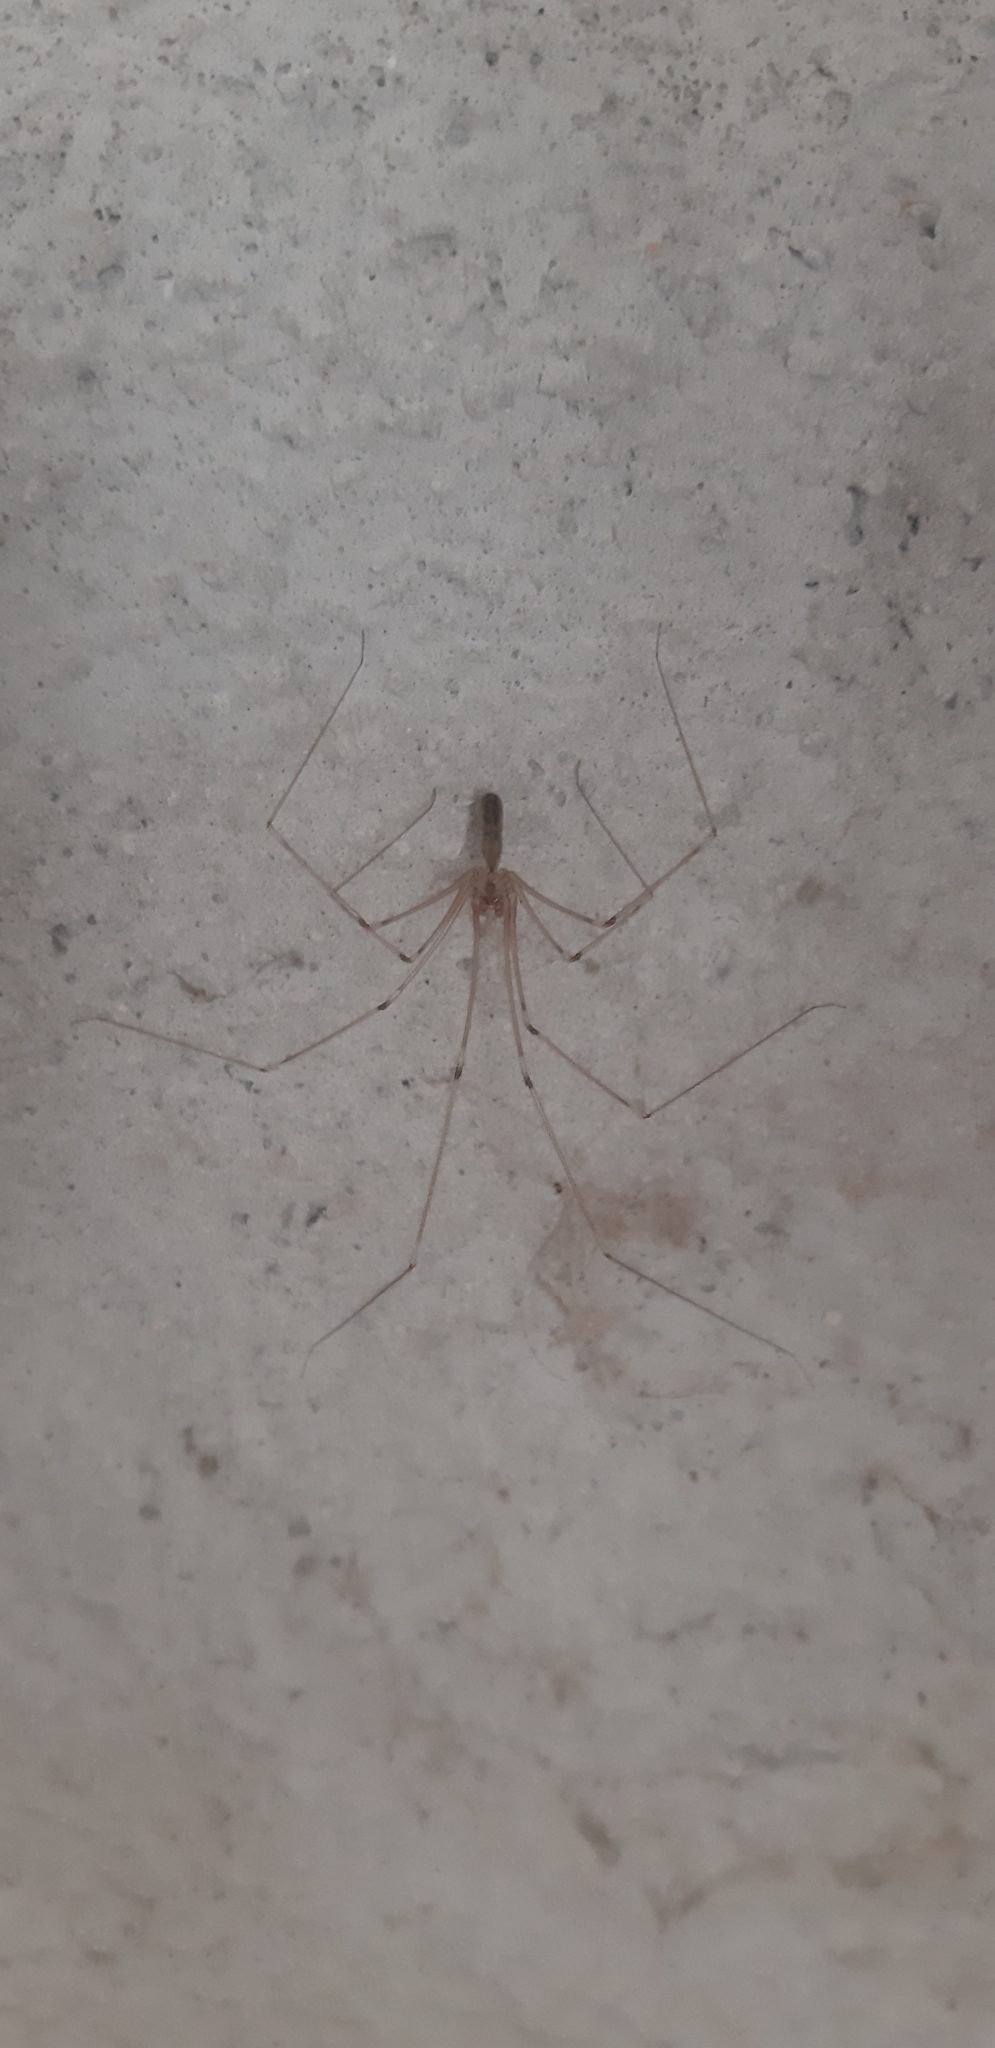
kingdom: Animalia
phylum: Arthropoda
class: Arachnida
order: Araneae
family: Pholcidae
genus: Pholcus
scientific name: Pholcus phalangioides
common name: Longbodied cellar spider
